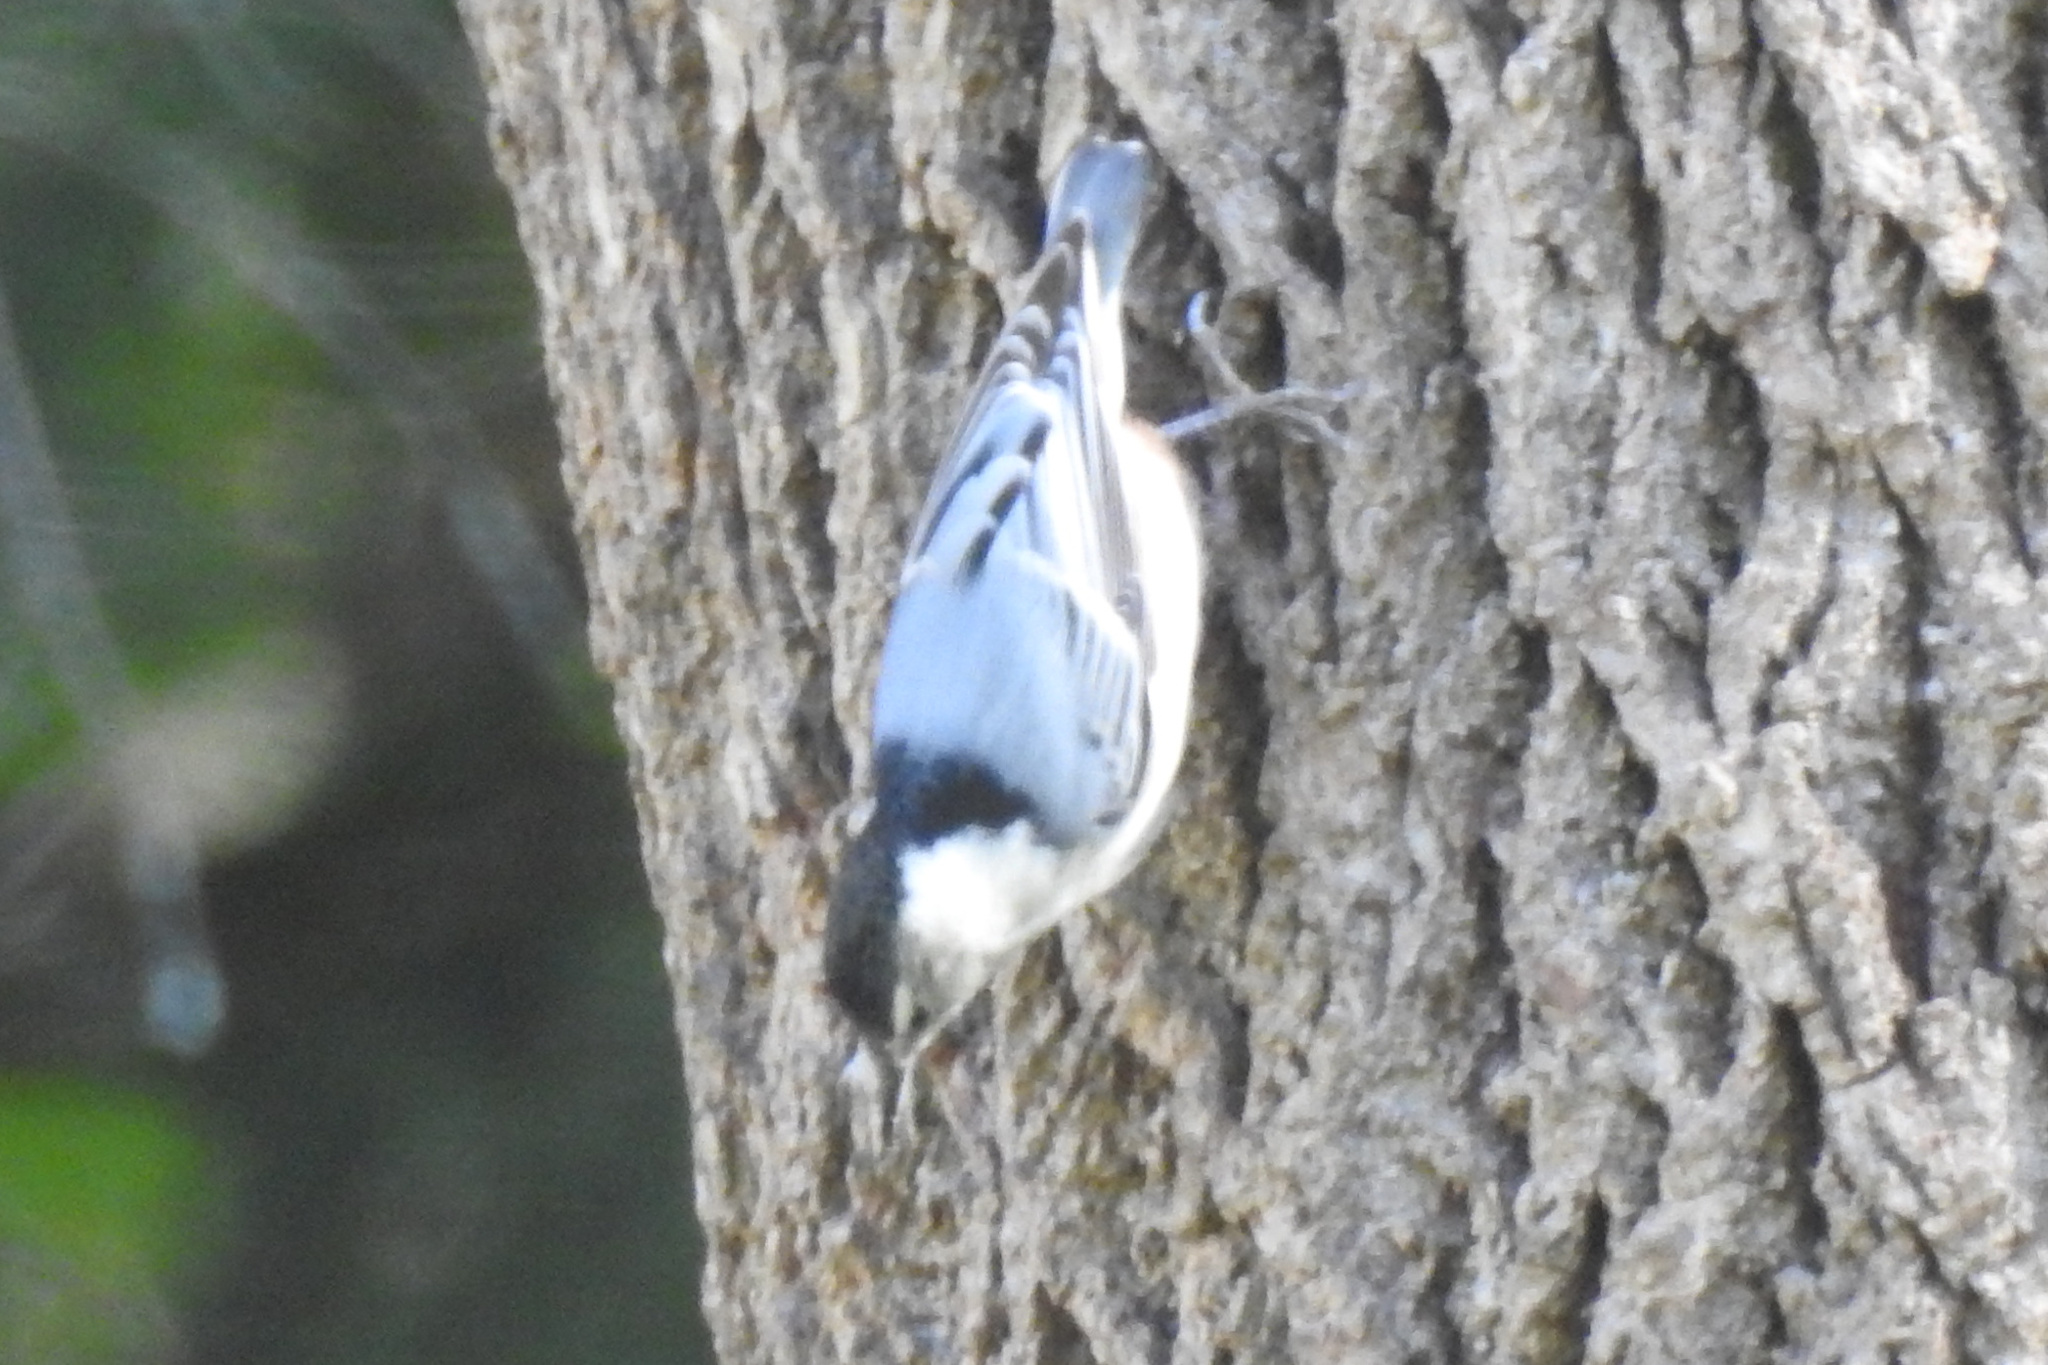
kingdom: Animalia
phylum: Chordata
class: Aves
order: Passeriformes
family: Sittidae
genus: Sitta
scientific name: Sitta carolinensis
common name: White-breasted nuthatch
